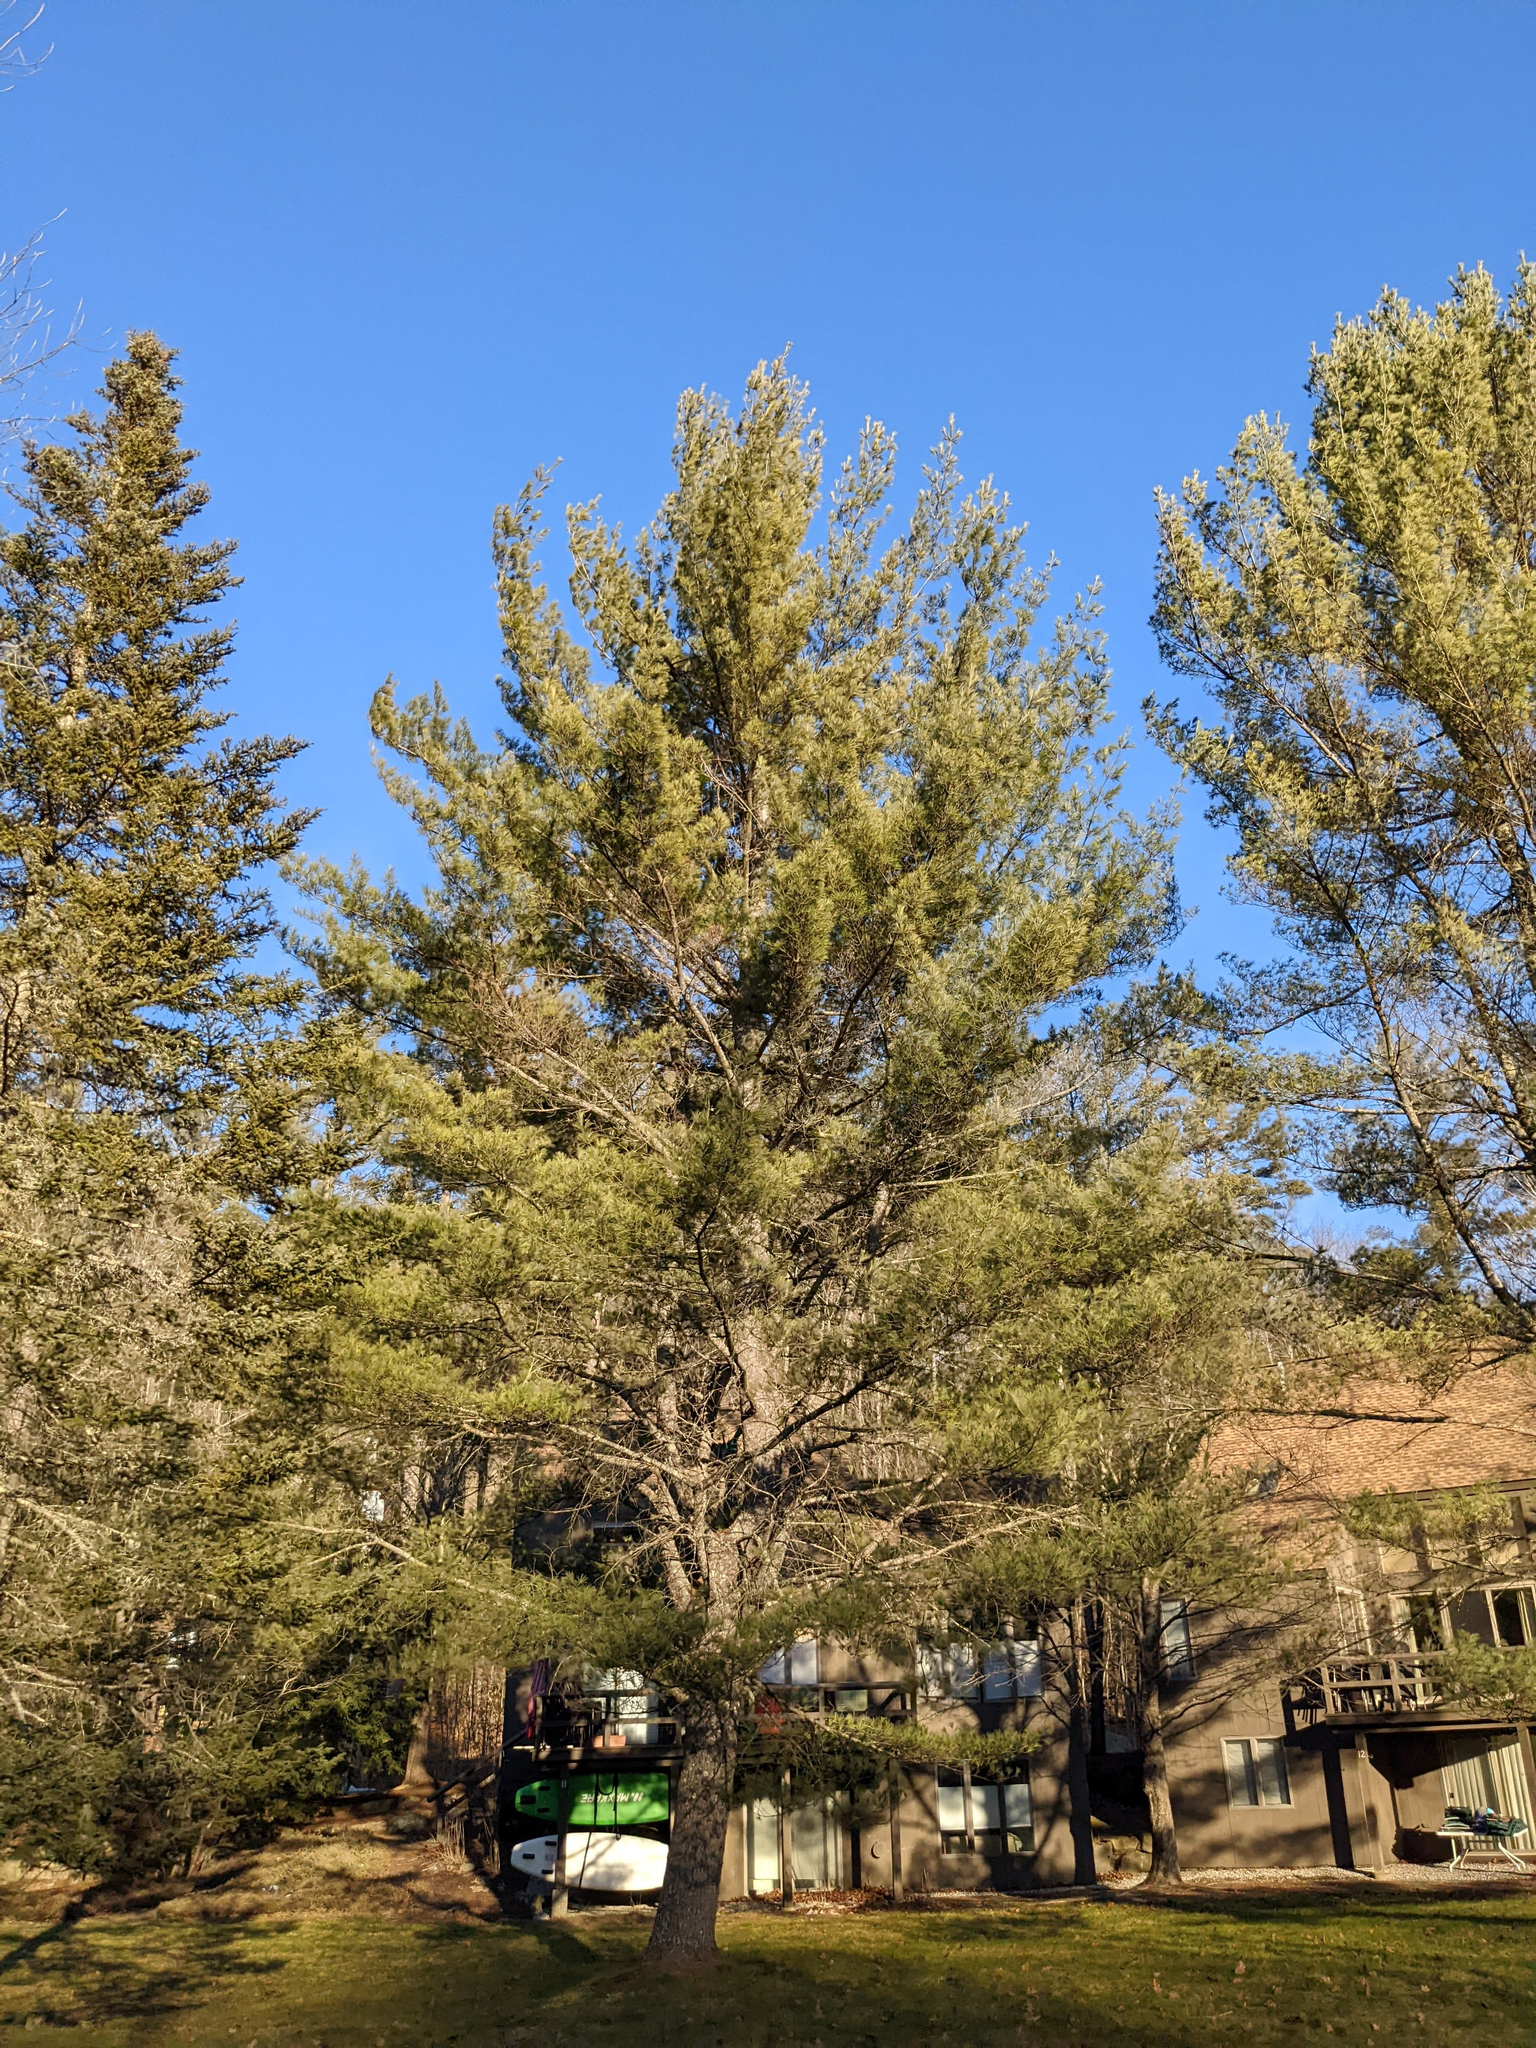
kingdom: Plantae
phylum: Tracheophyta
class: Pinopsida
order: Pinales
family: Pinaceae
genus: Pinus
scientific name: Pinus strobus
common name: Weymouth pine
